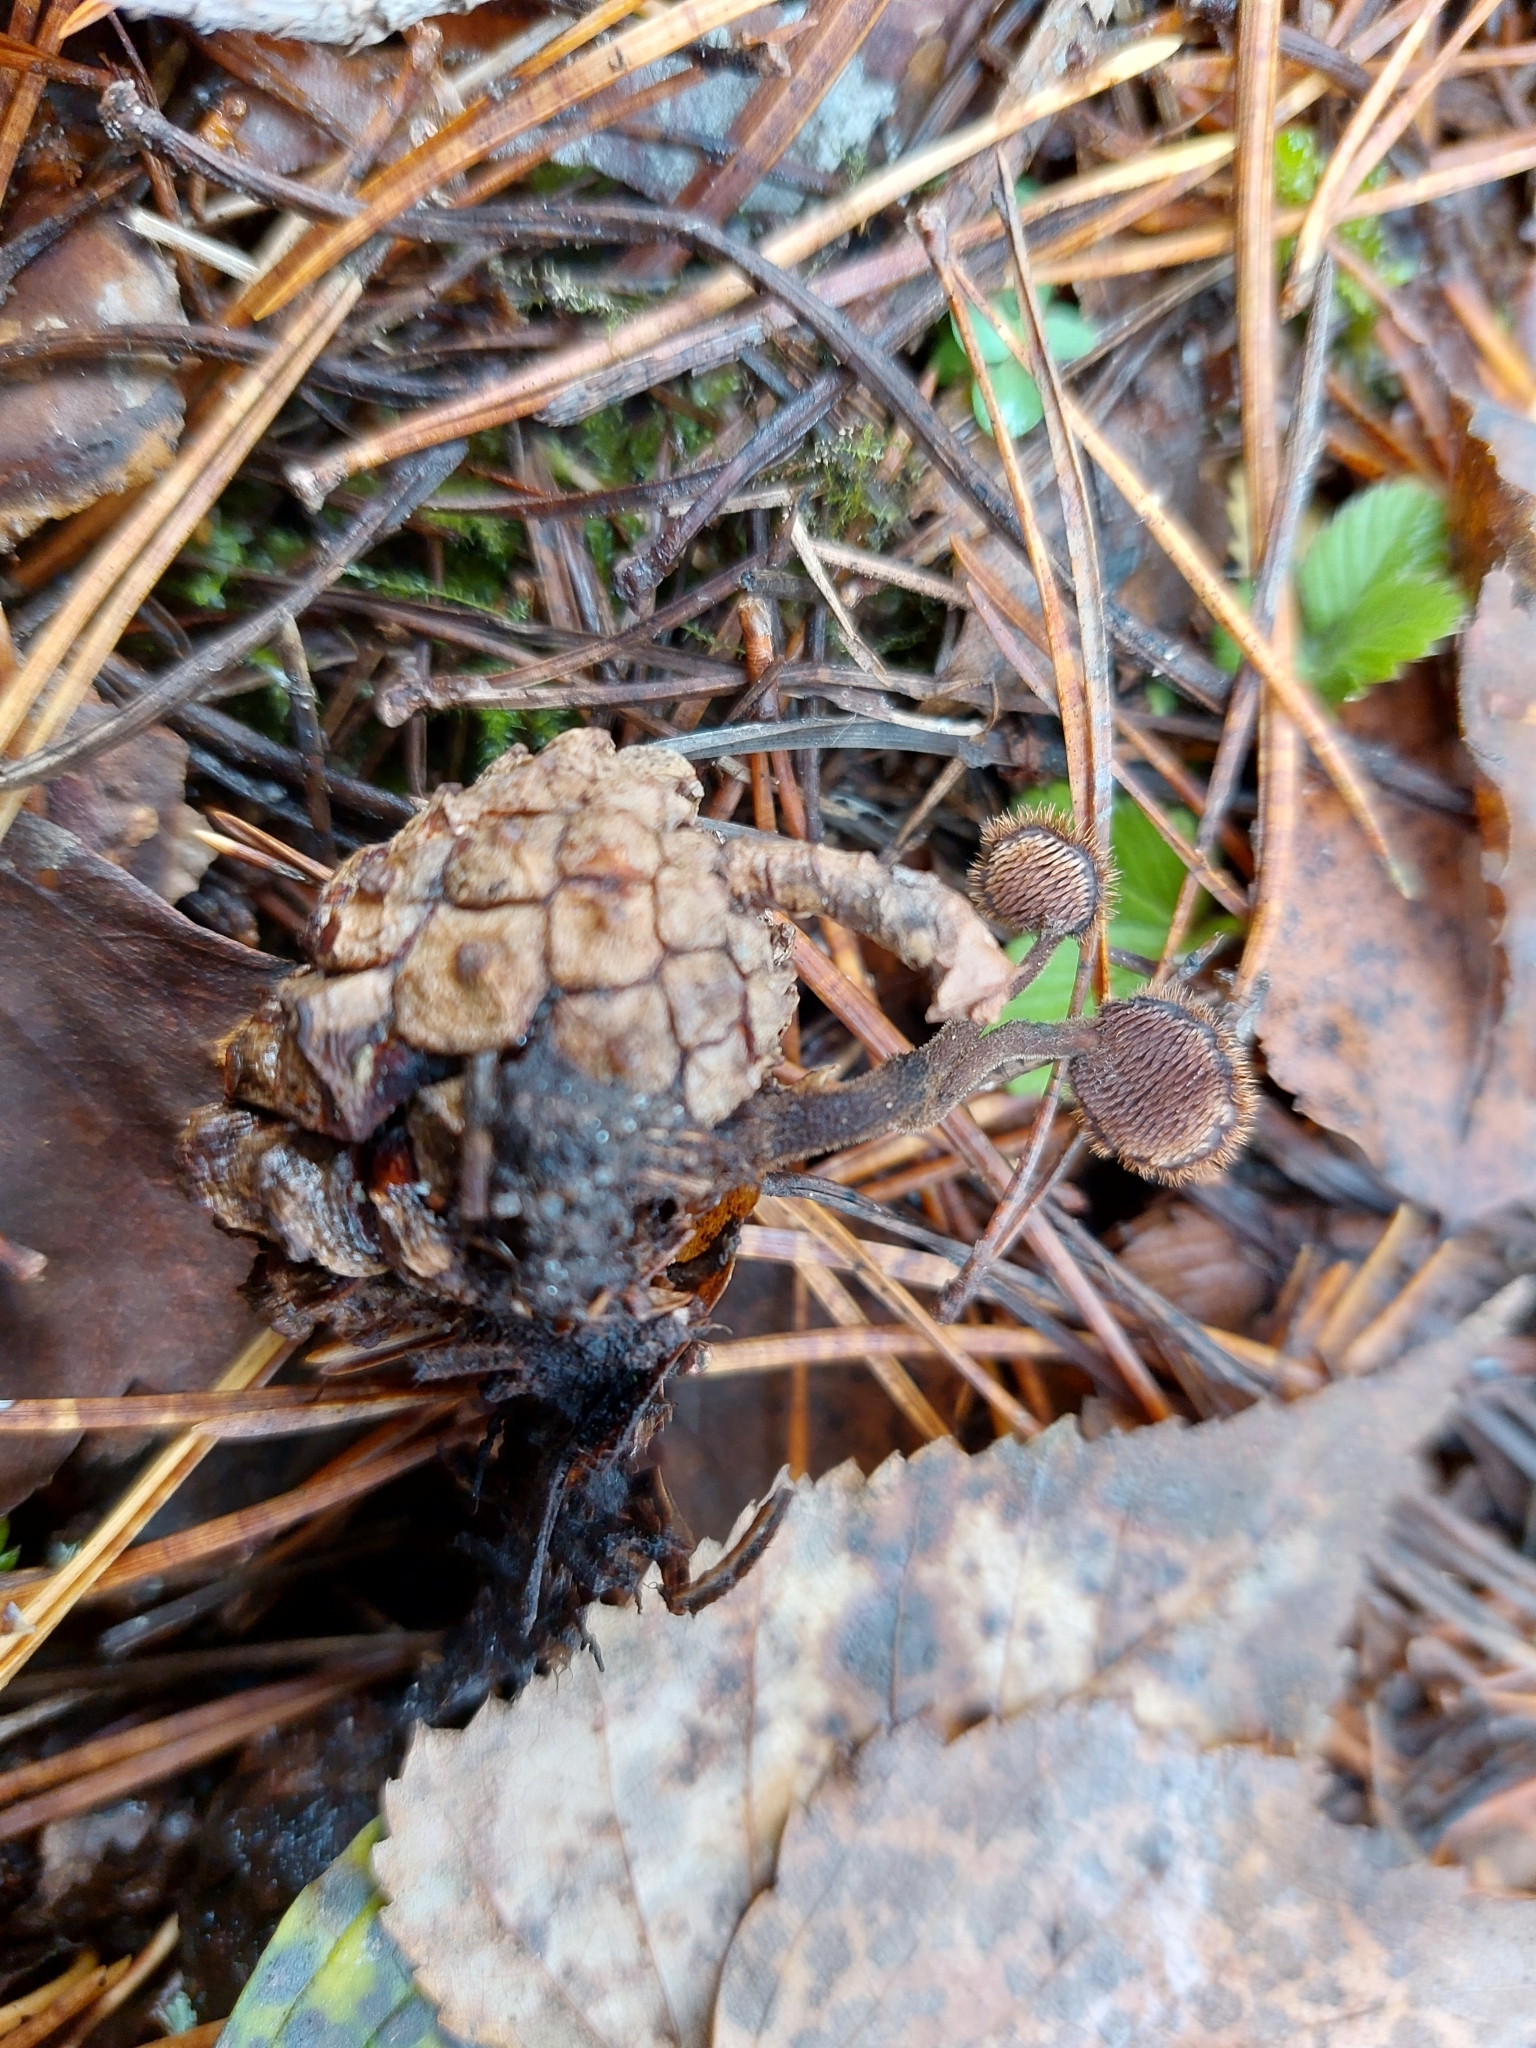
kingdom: Fungi
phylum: Basidiomycota
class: Agaricomycetes
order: Russulales
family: Auriscalpiaceae
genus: Auriscalpium
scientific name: Auriscalpium vulgare
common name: Earpick fungus
